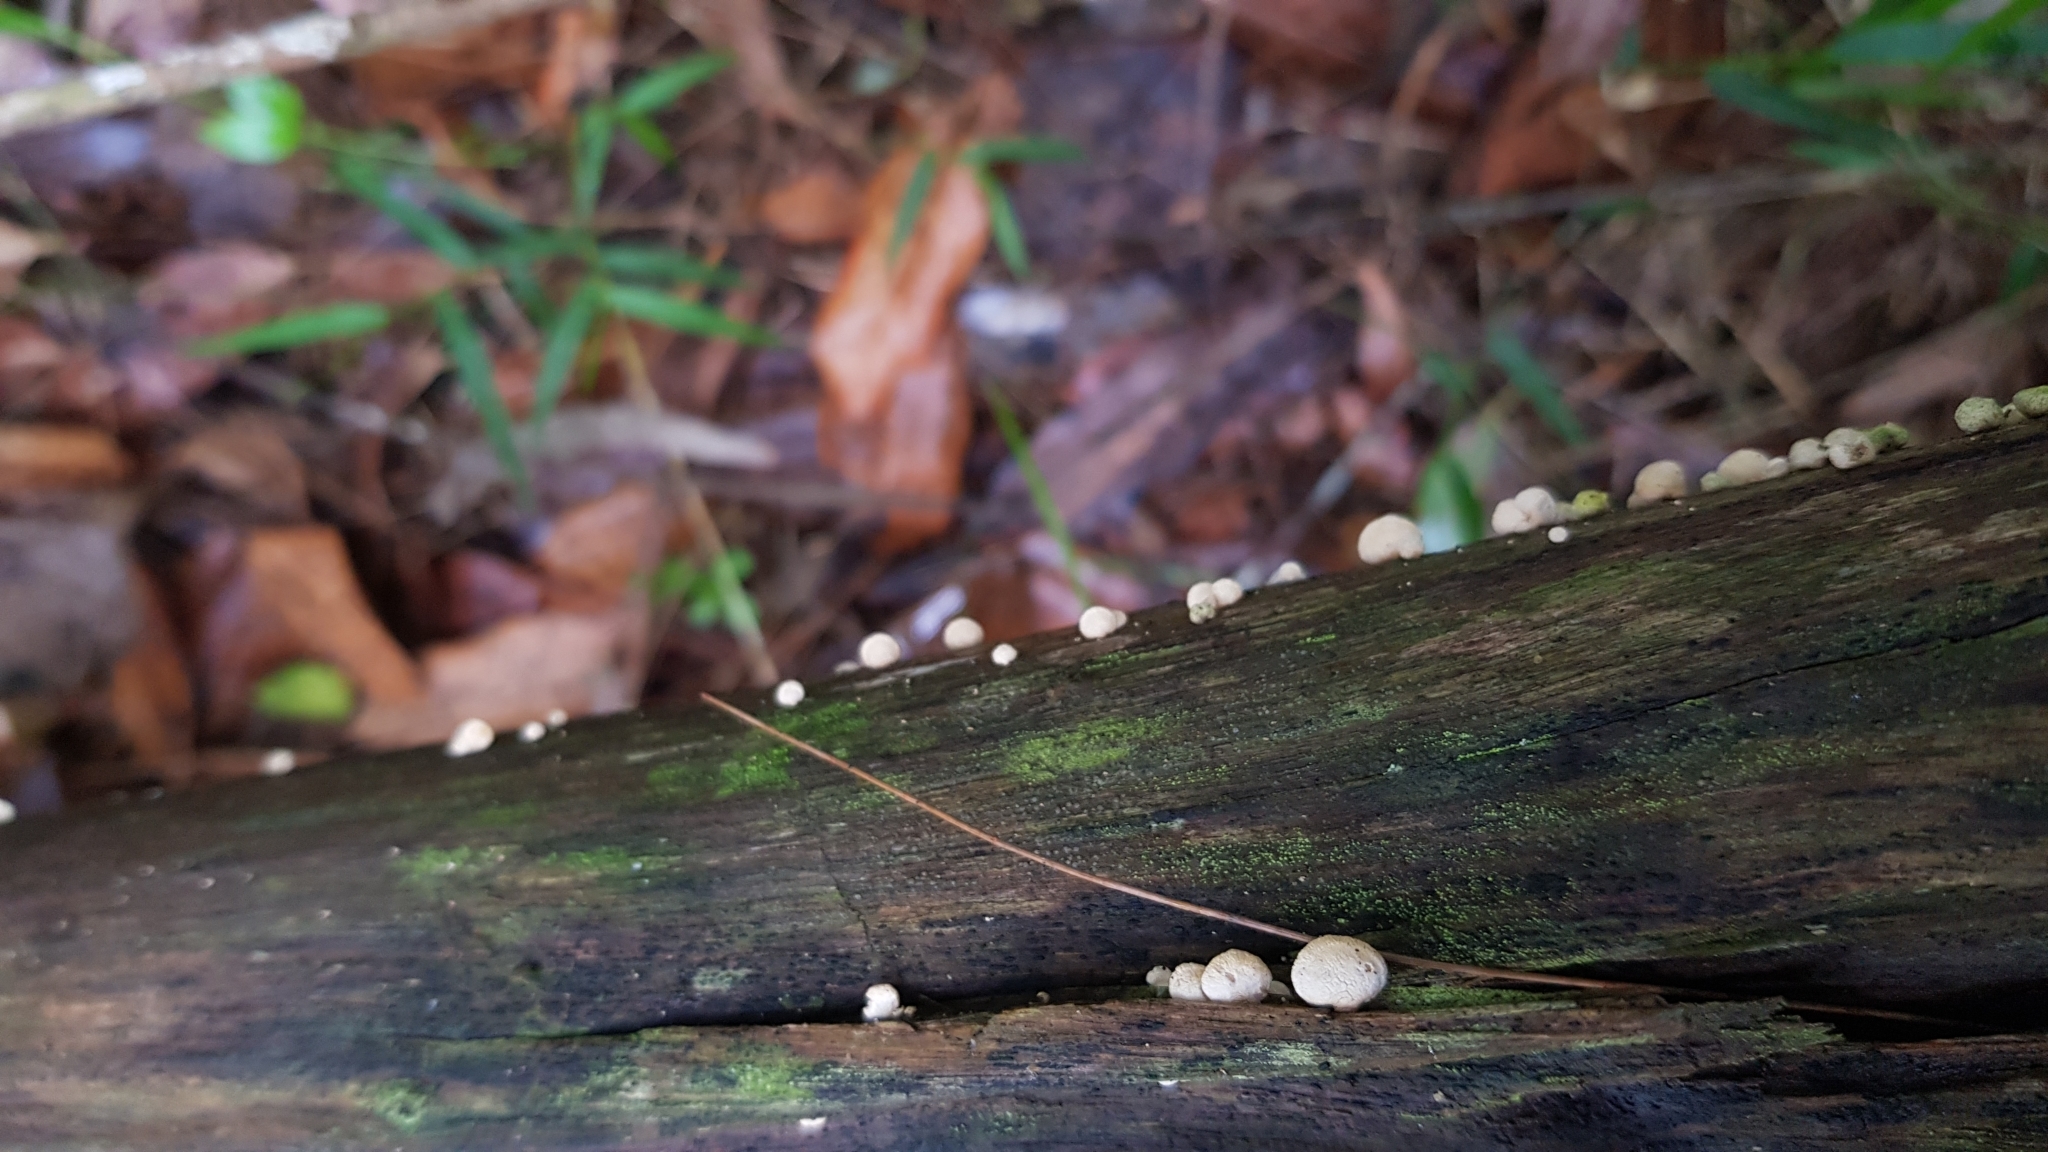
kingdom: Fungi
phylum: Basidiomycota
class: Agaricomycetes
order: Agaricales
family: Mycenaceae
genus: Panellus
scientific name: Panellus luxfilamentus
